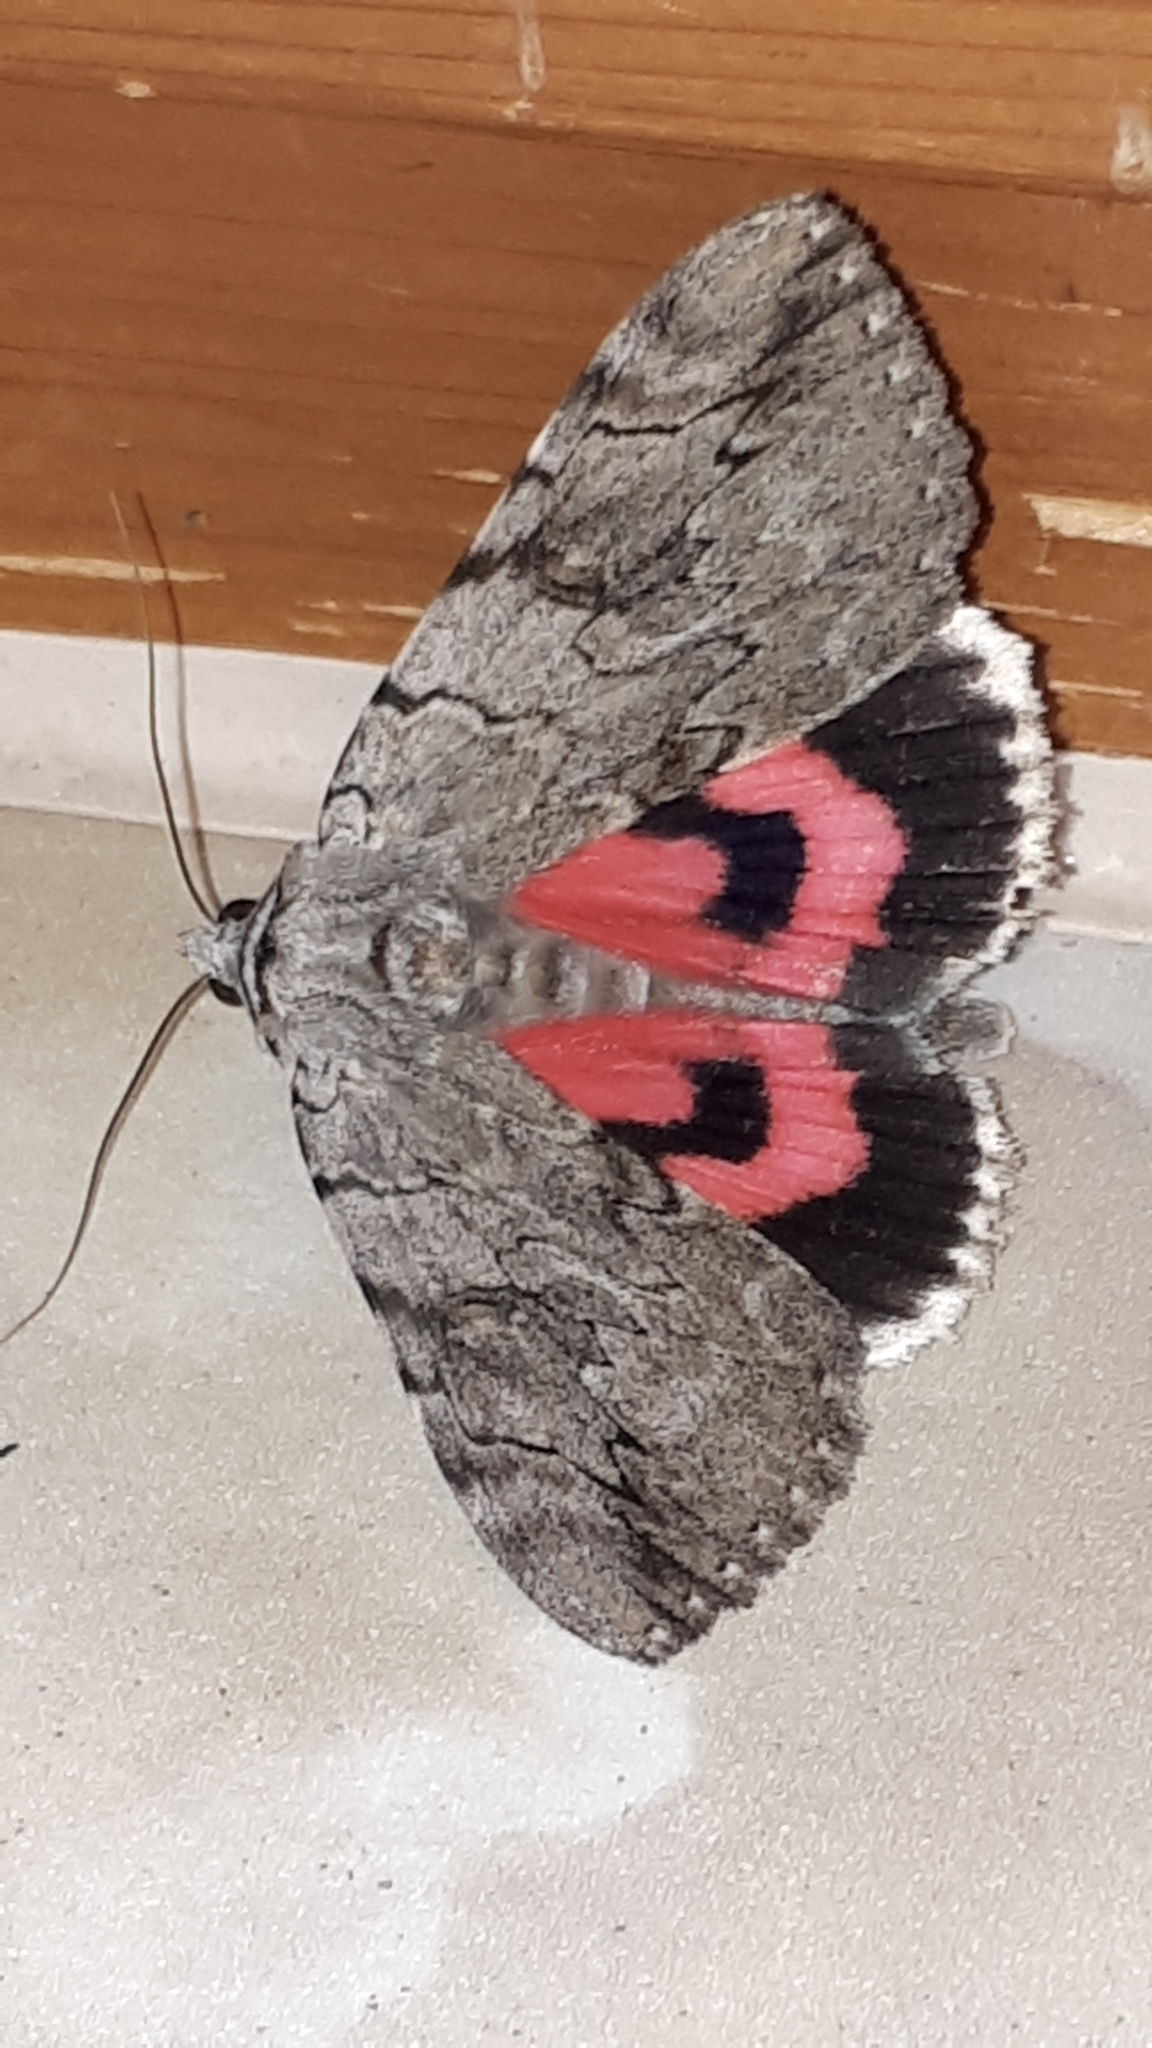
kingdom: Animalia
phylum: Arthropoda
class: Insecta
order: Lepidoptera
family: Erebidae
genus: Catocala
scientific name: Catocala electa
